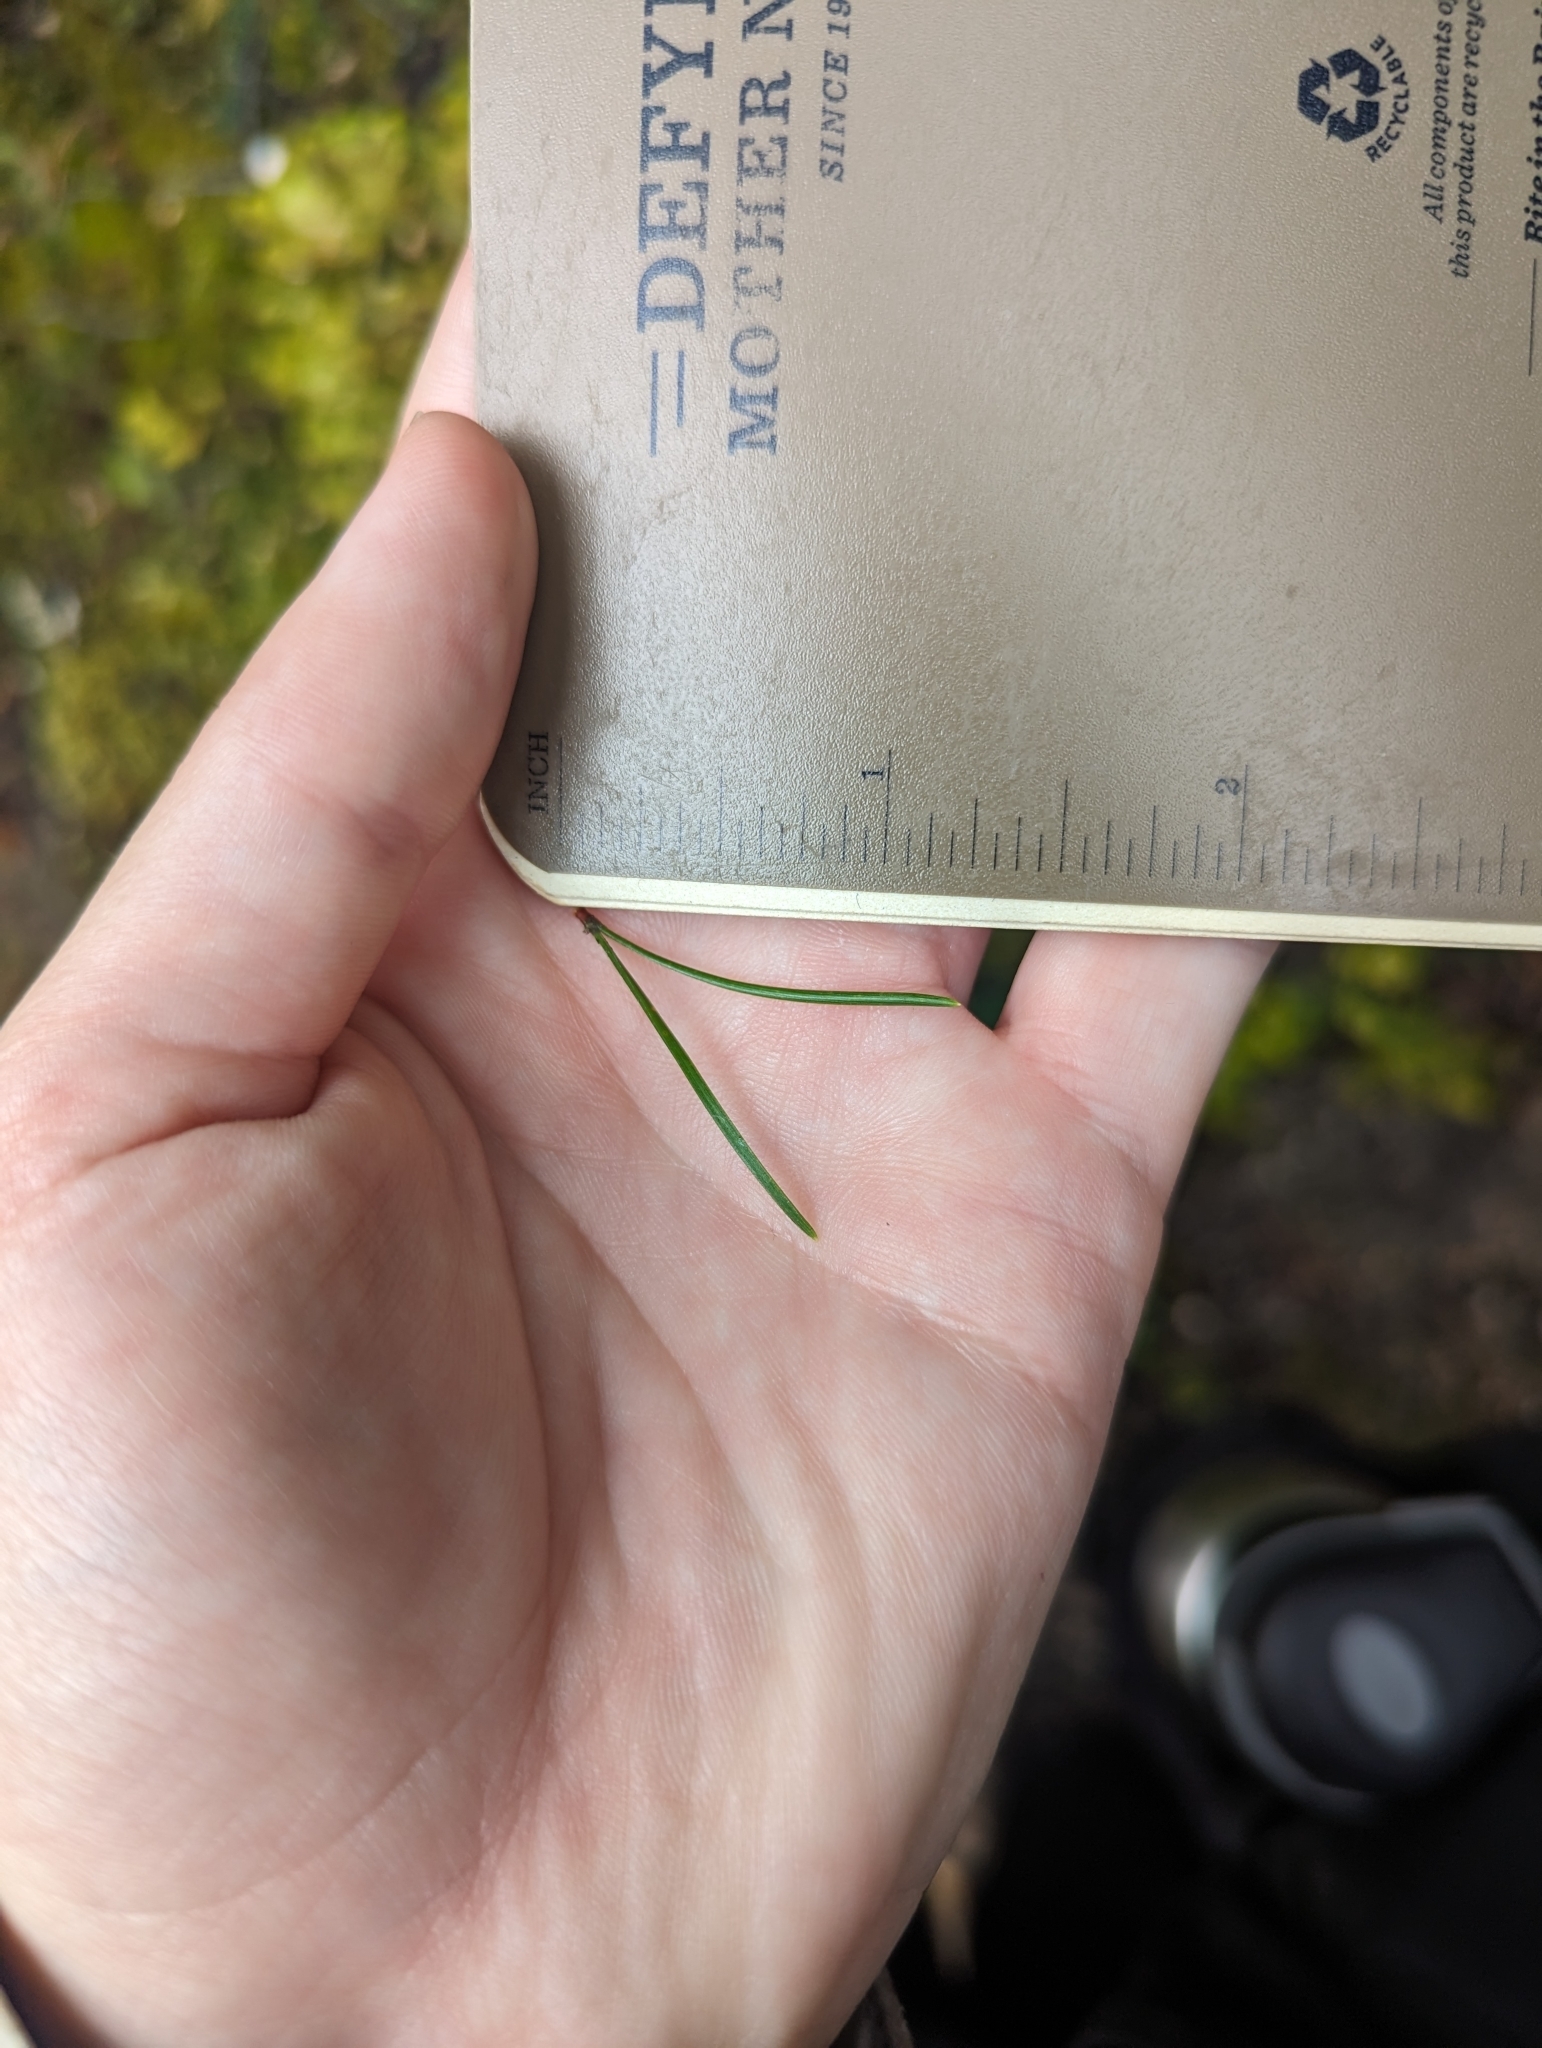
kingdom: Plantae
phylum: Tracheophyta
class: Pinopsida
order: Pinales
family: Pinaceae
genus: Pinus
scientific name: Pinus contorta
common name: Lodgepole pine
